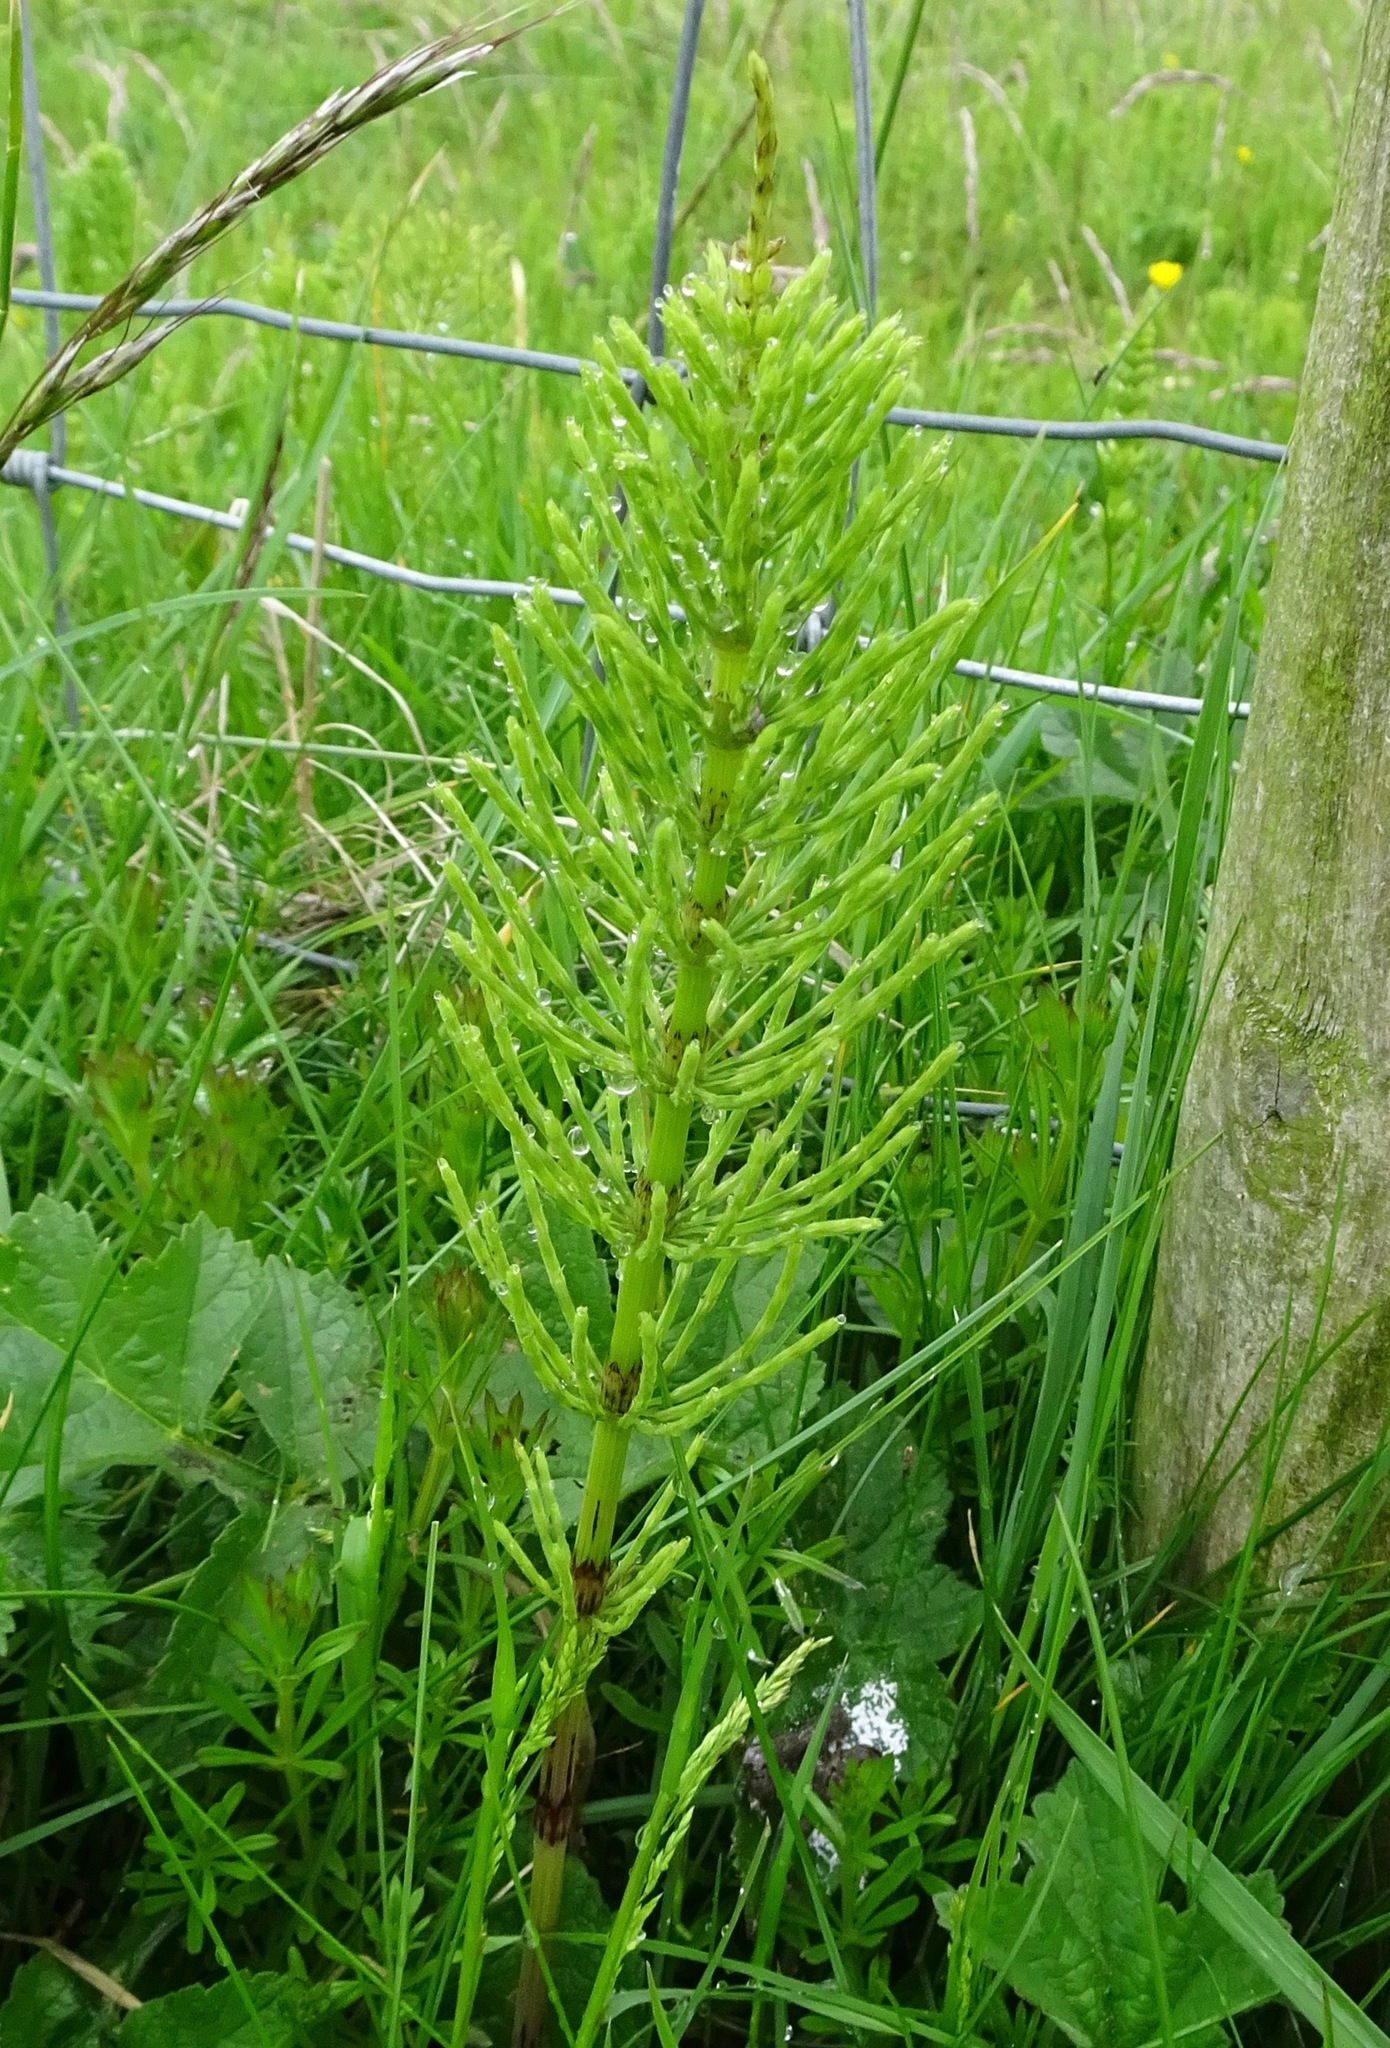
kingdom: Plantae
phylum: Tracheophyta
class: Polypodiopsida
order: Equisetales
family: Equisetaceae
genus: Equisetum
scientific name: Equisetum arvense
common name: Field horsetail
